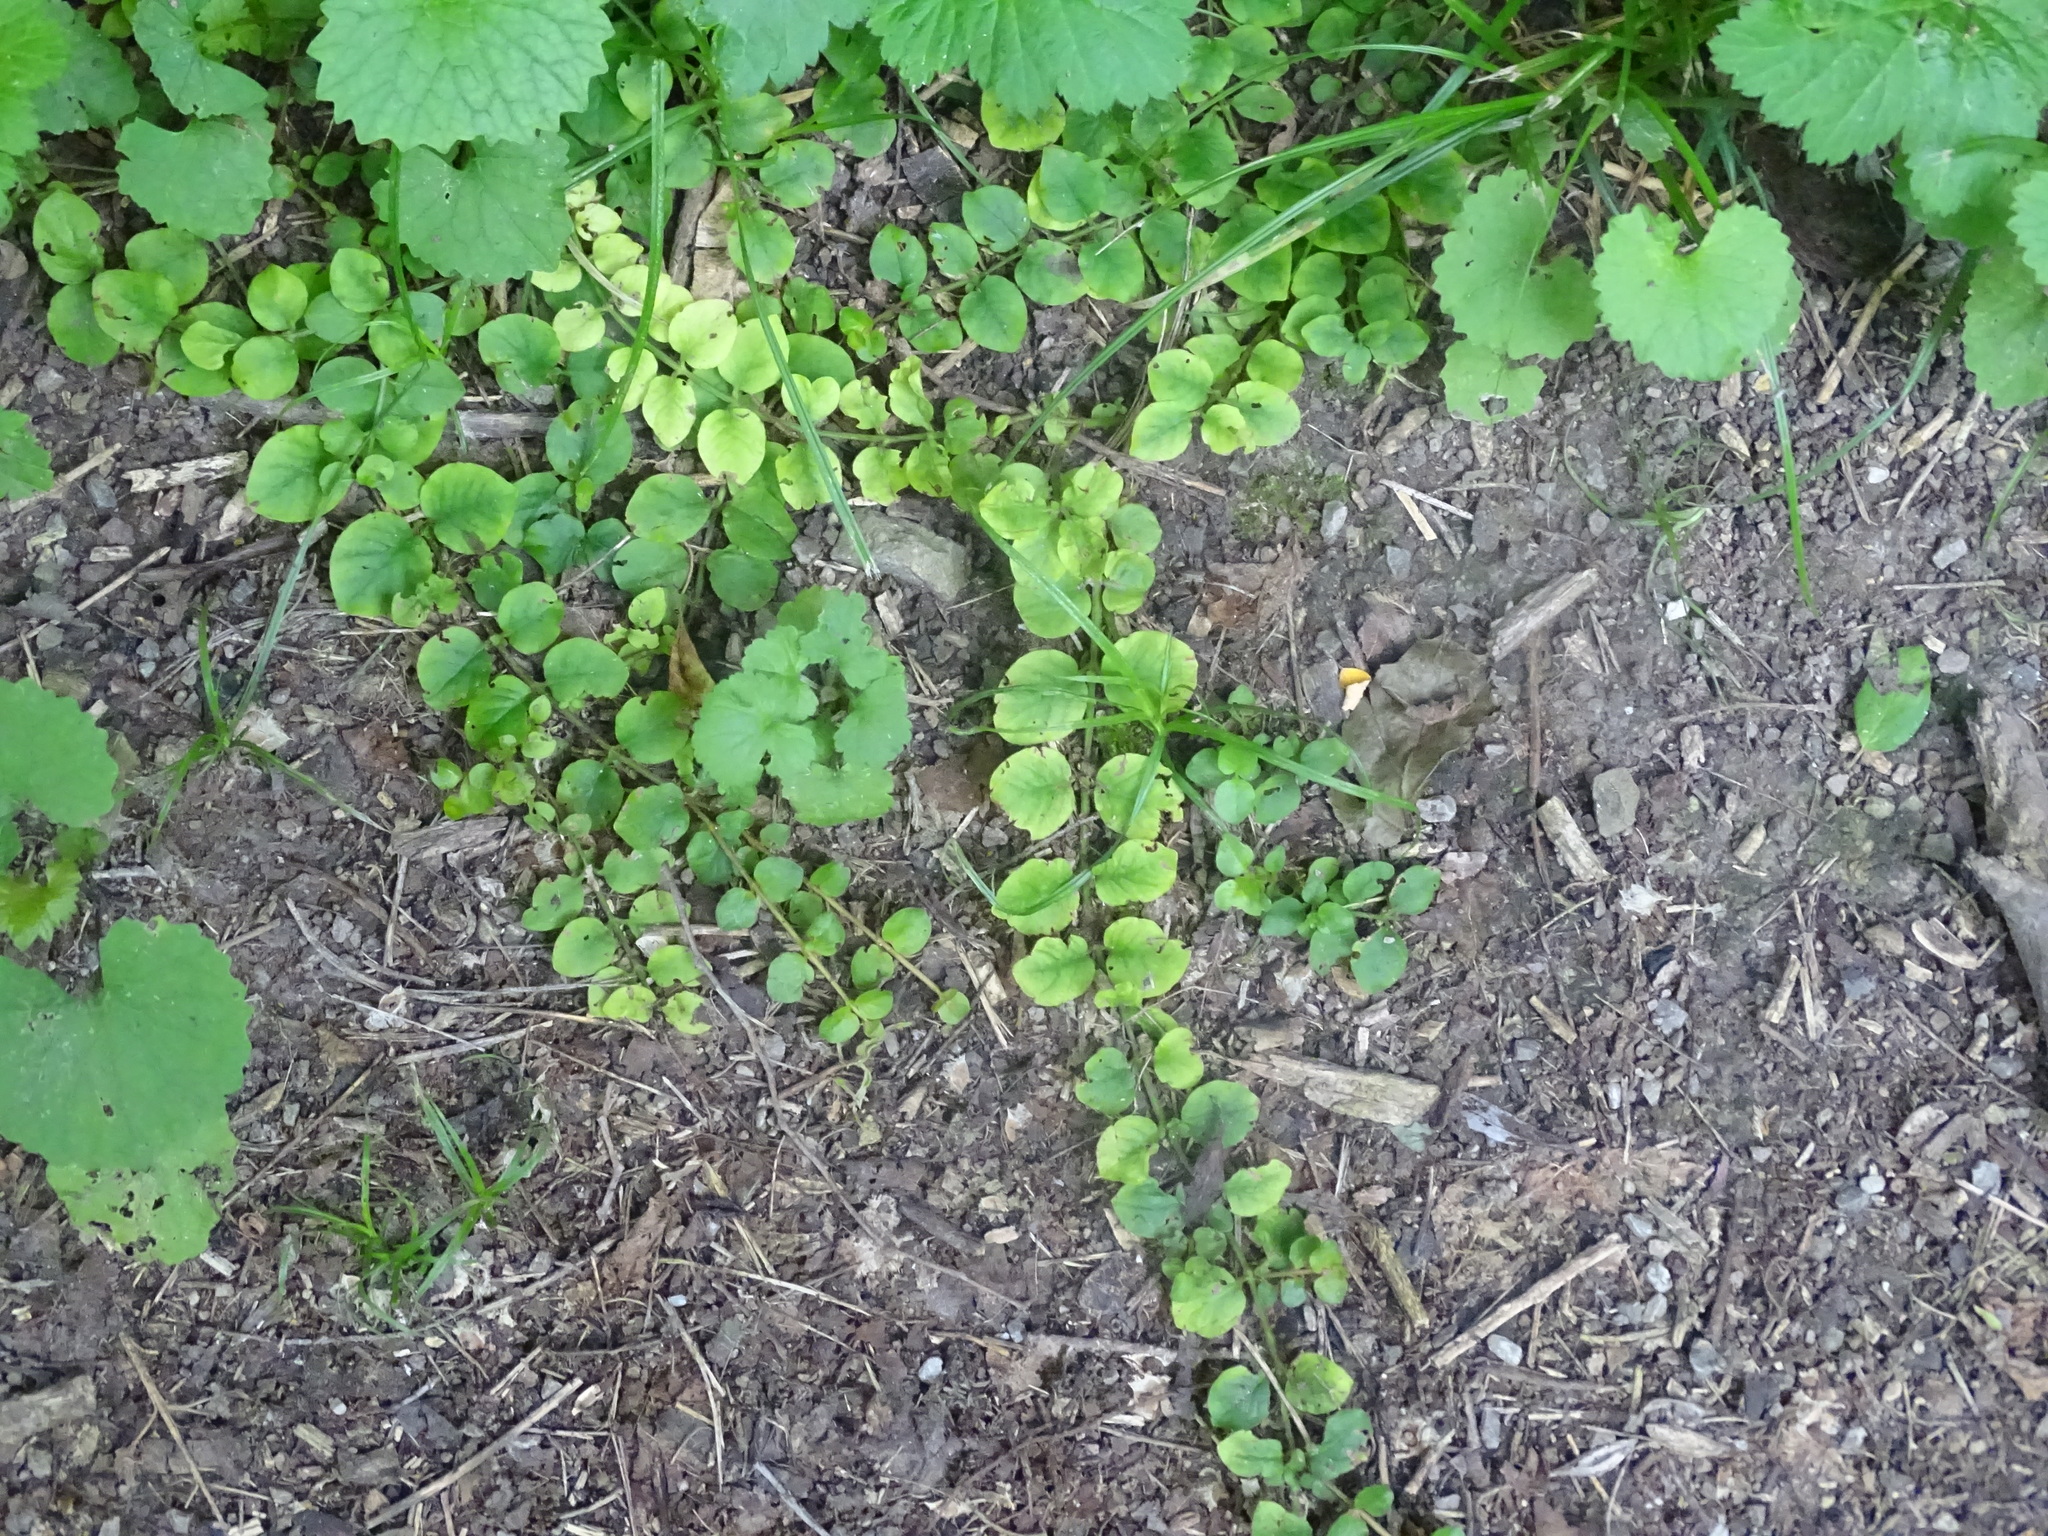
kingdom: Plantae
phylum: Tracheophyta
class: Magnoliopsida
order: Ericales
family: Primulaceae
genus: Lysimachia
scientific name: Lysimachia nummularia
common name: Moneywort
